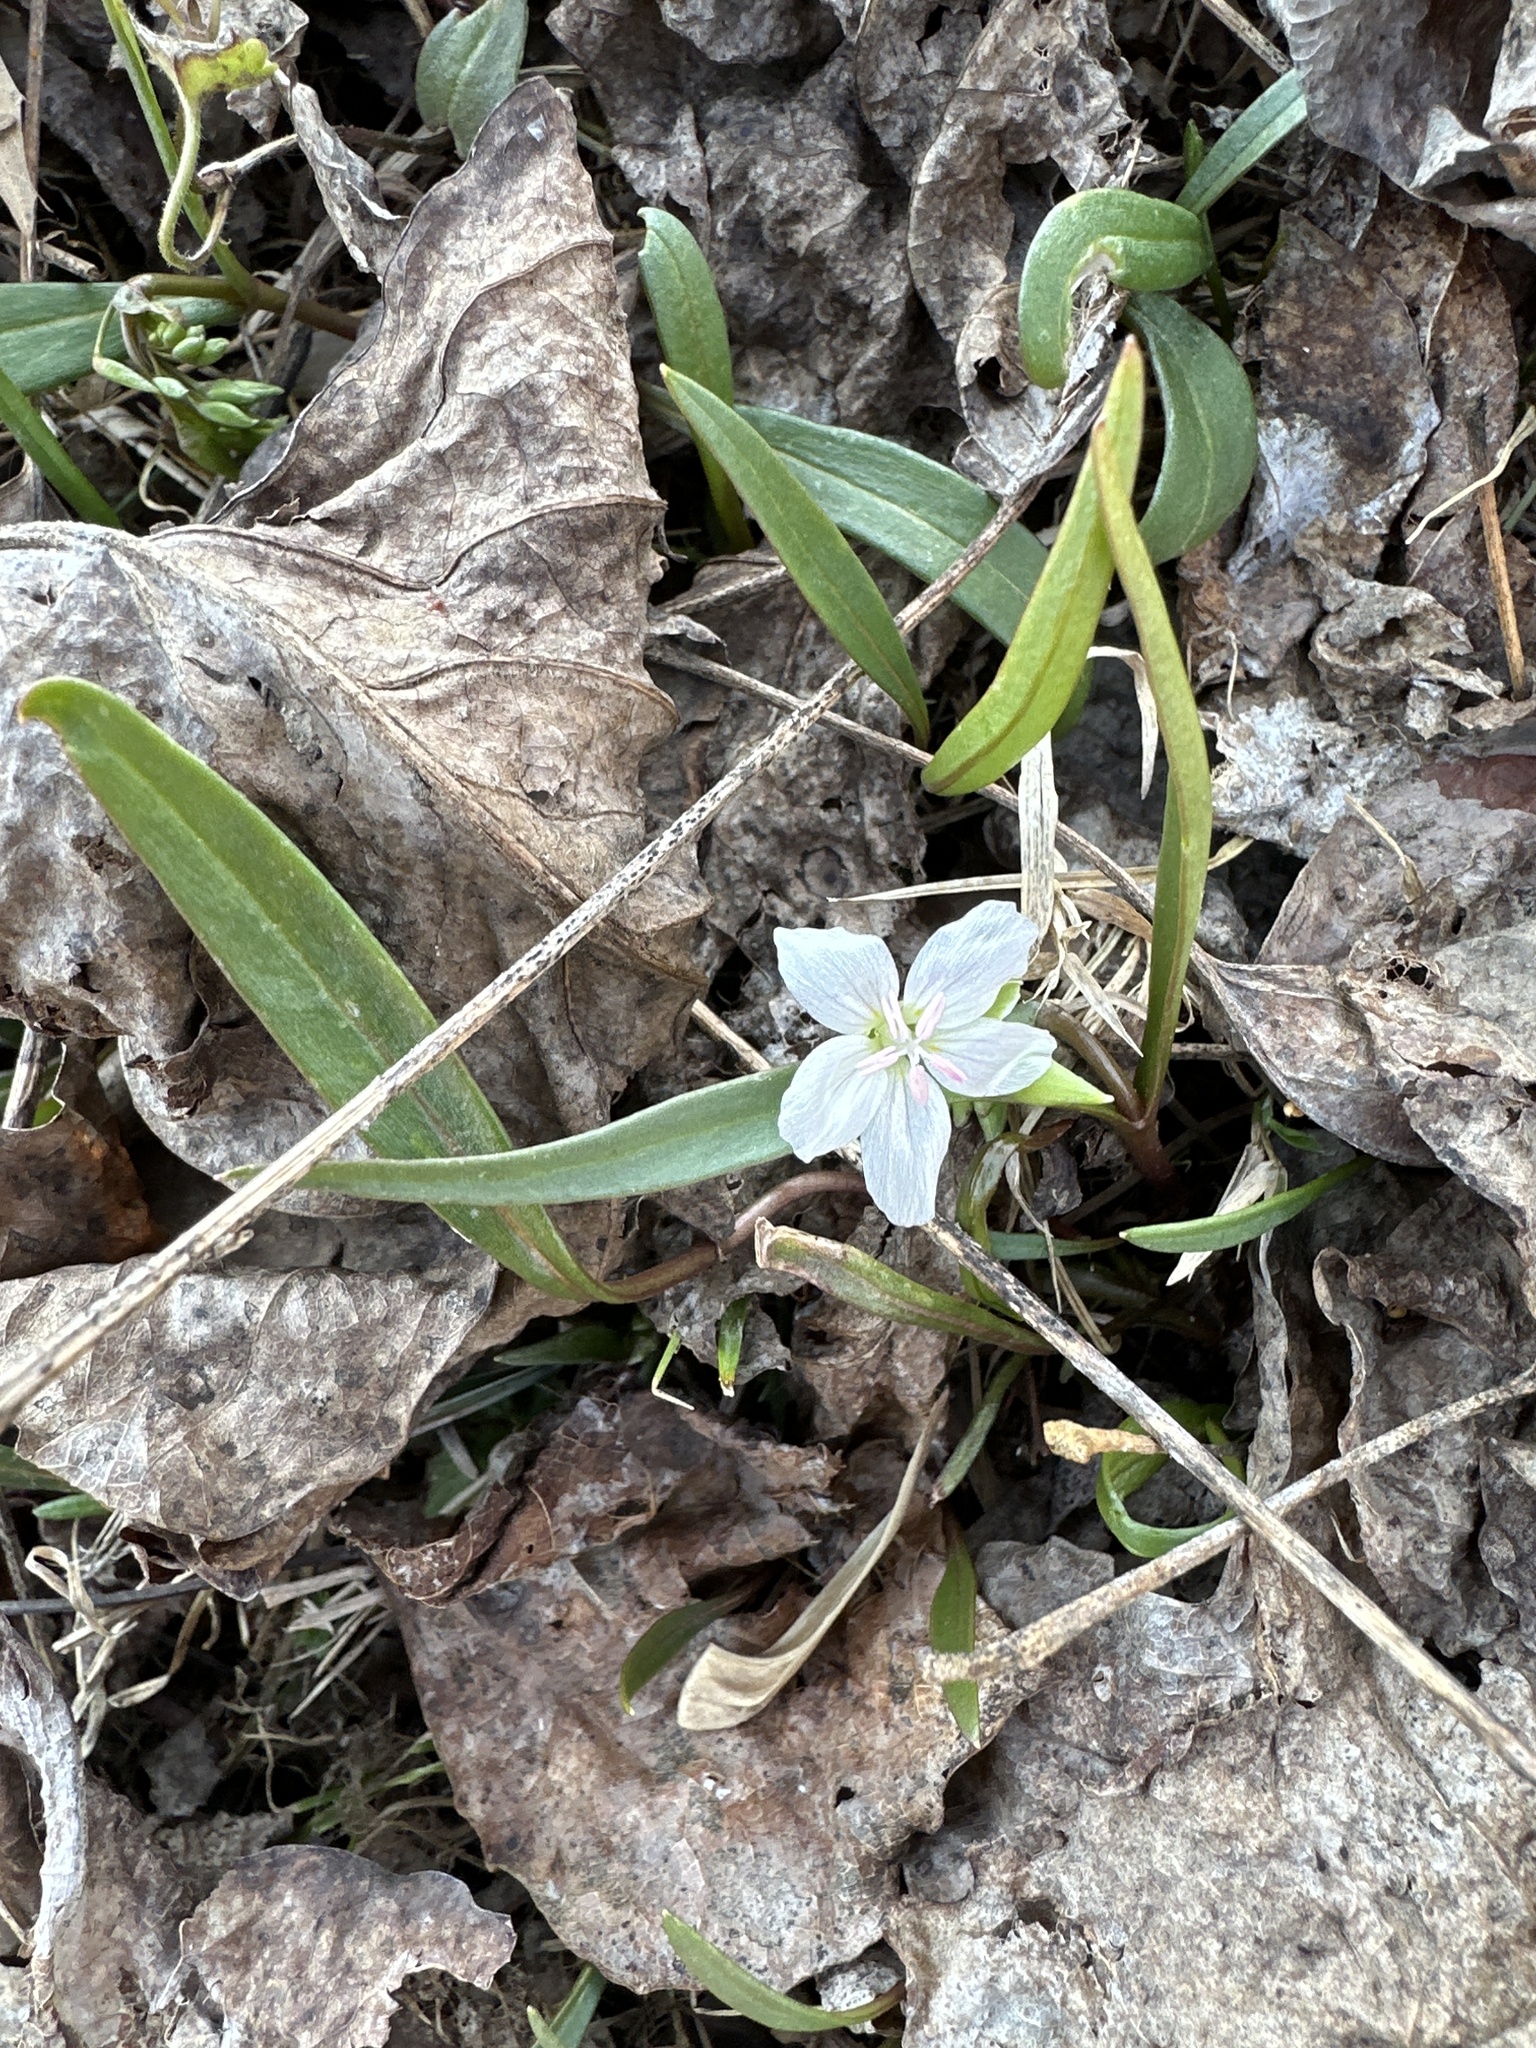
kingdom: Plantae
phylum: Tracheophyta
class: Magnoliopsida
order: Caryophyllales
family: Montiaceae
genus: Claytonia
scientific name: Claytonia virginica
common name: Virginia springbeauty
